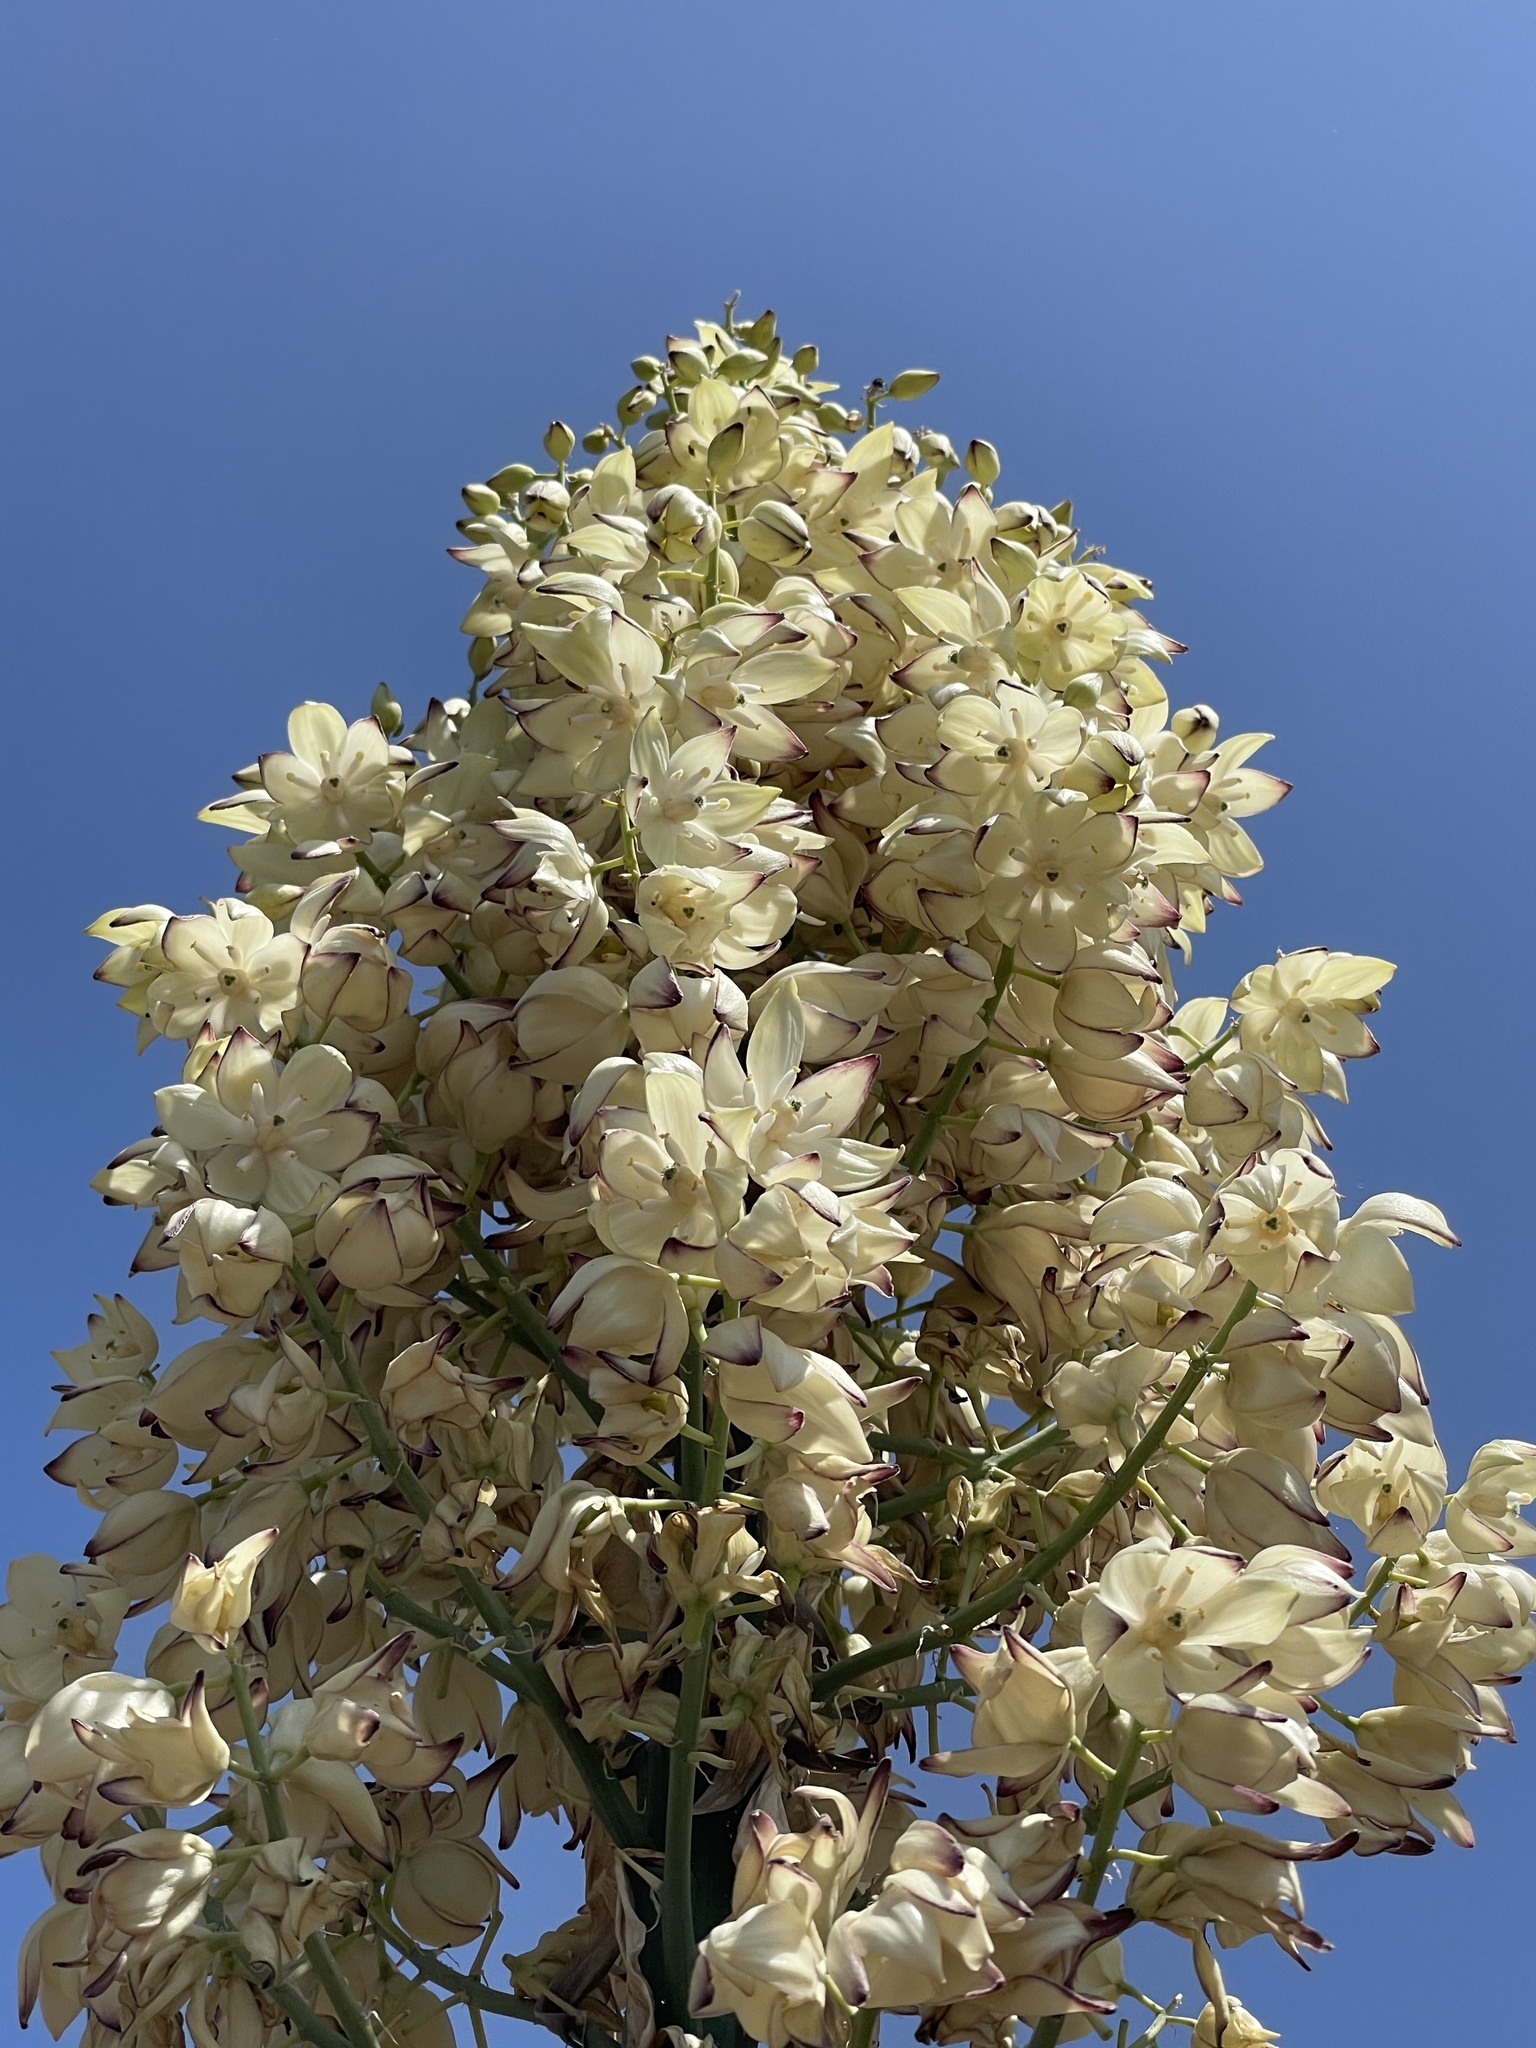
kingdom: Plantae
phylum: Tracheophyta
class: Liliopsida
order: Asparagales
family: Asparagaceae
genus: Hesperoyucca
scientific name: Hesperoyucca whipplei
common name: Our lord's-candle
